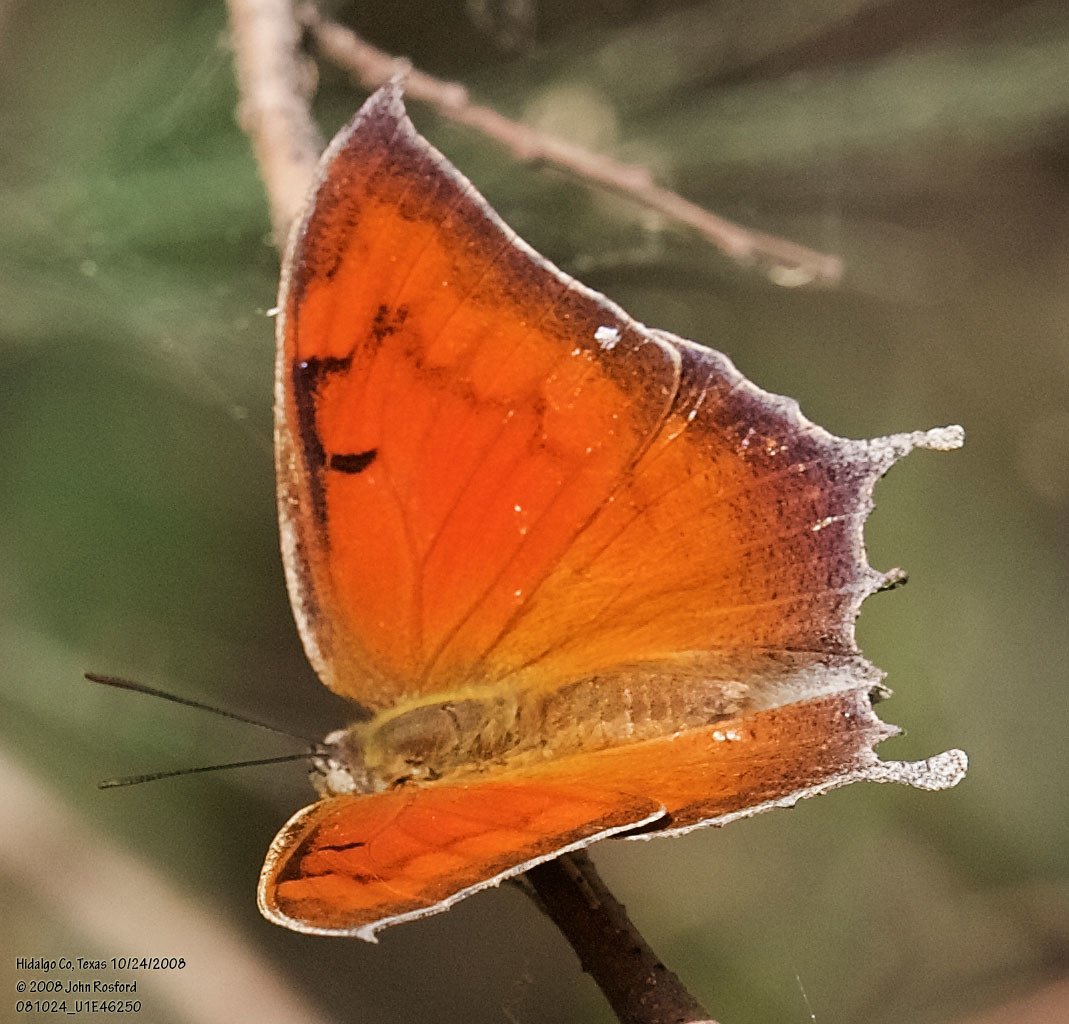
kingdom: Animalia
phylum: Arthropoda
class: Insecta
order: Lepidoptera
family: Nymphalidae
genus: Anaea
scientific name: Anaea aidea
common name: Tropical leafwing
